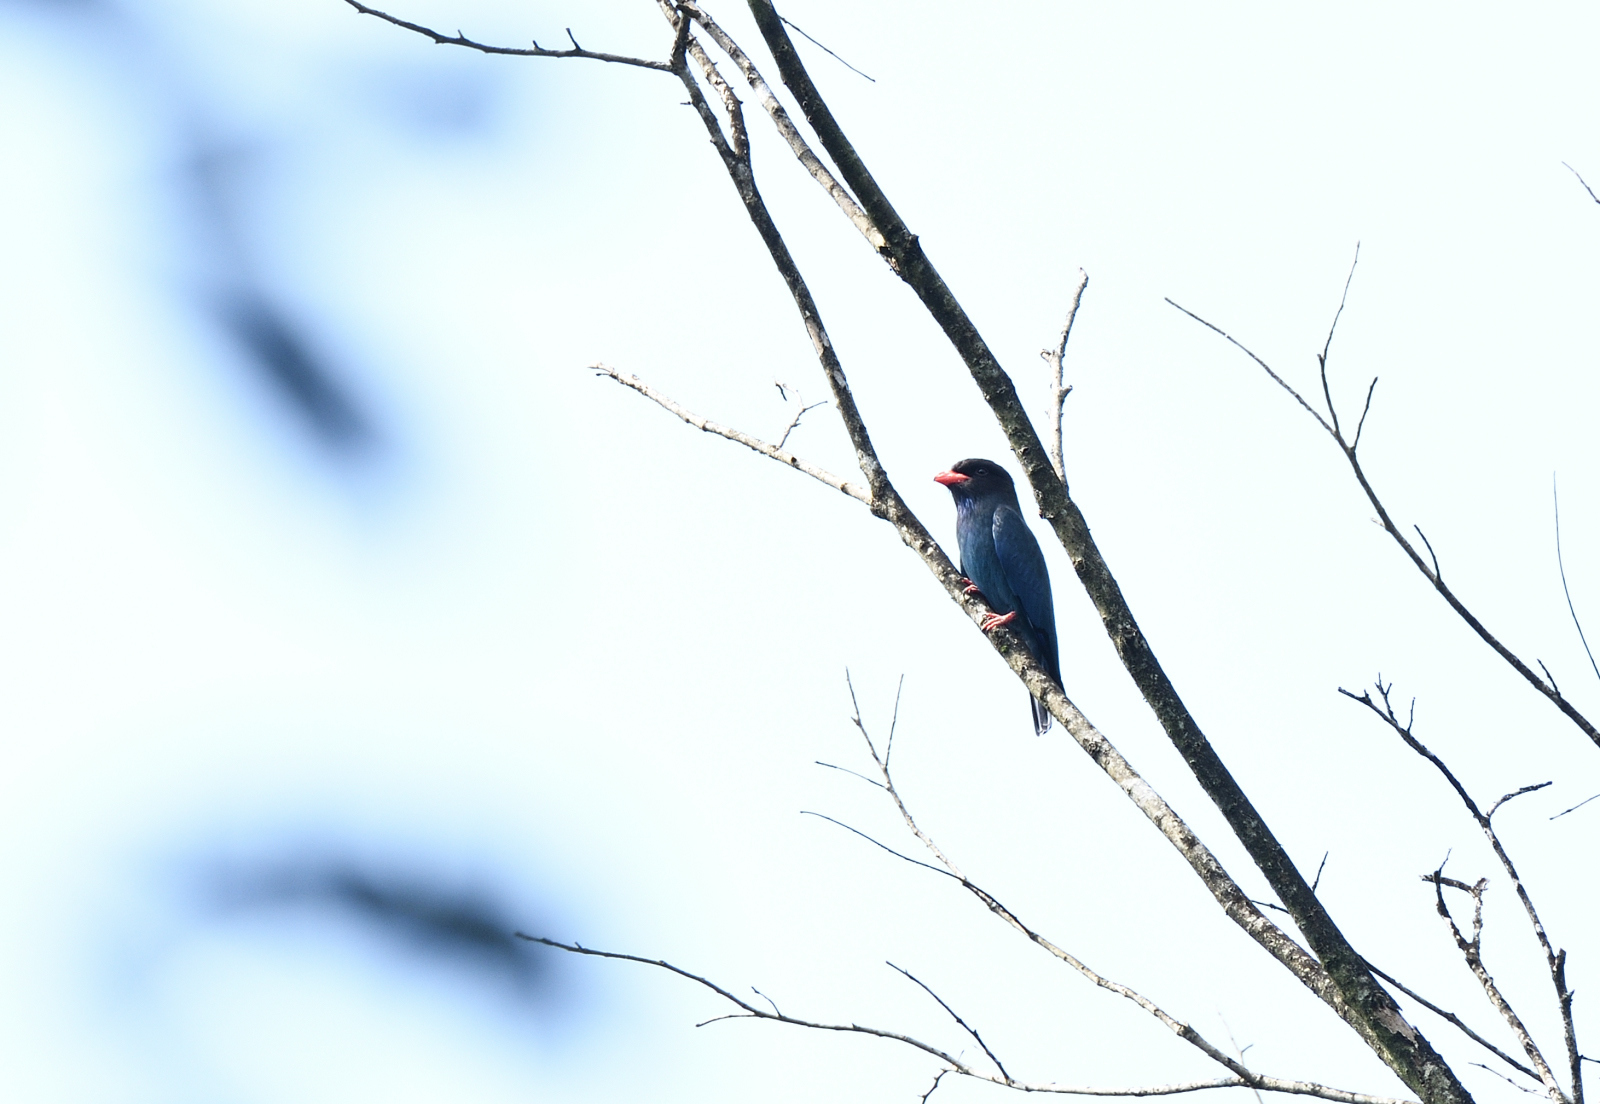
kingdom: Animalia
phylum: Chordata
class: Aves
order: Coraciiformes
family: Coraciidae
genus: Eurystomus
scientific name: Eurystomus orientalis
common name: Oriental dollarbird
